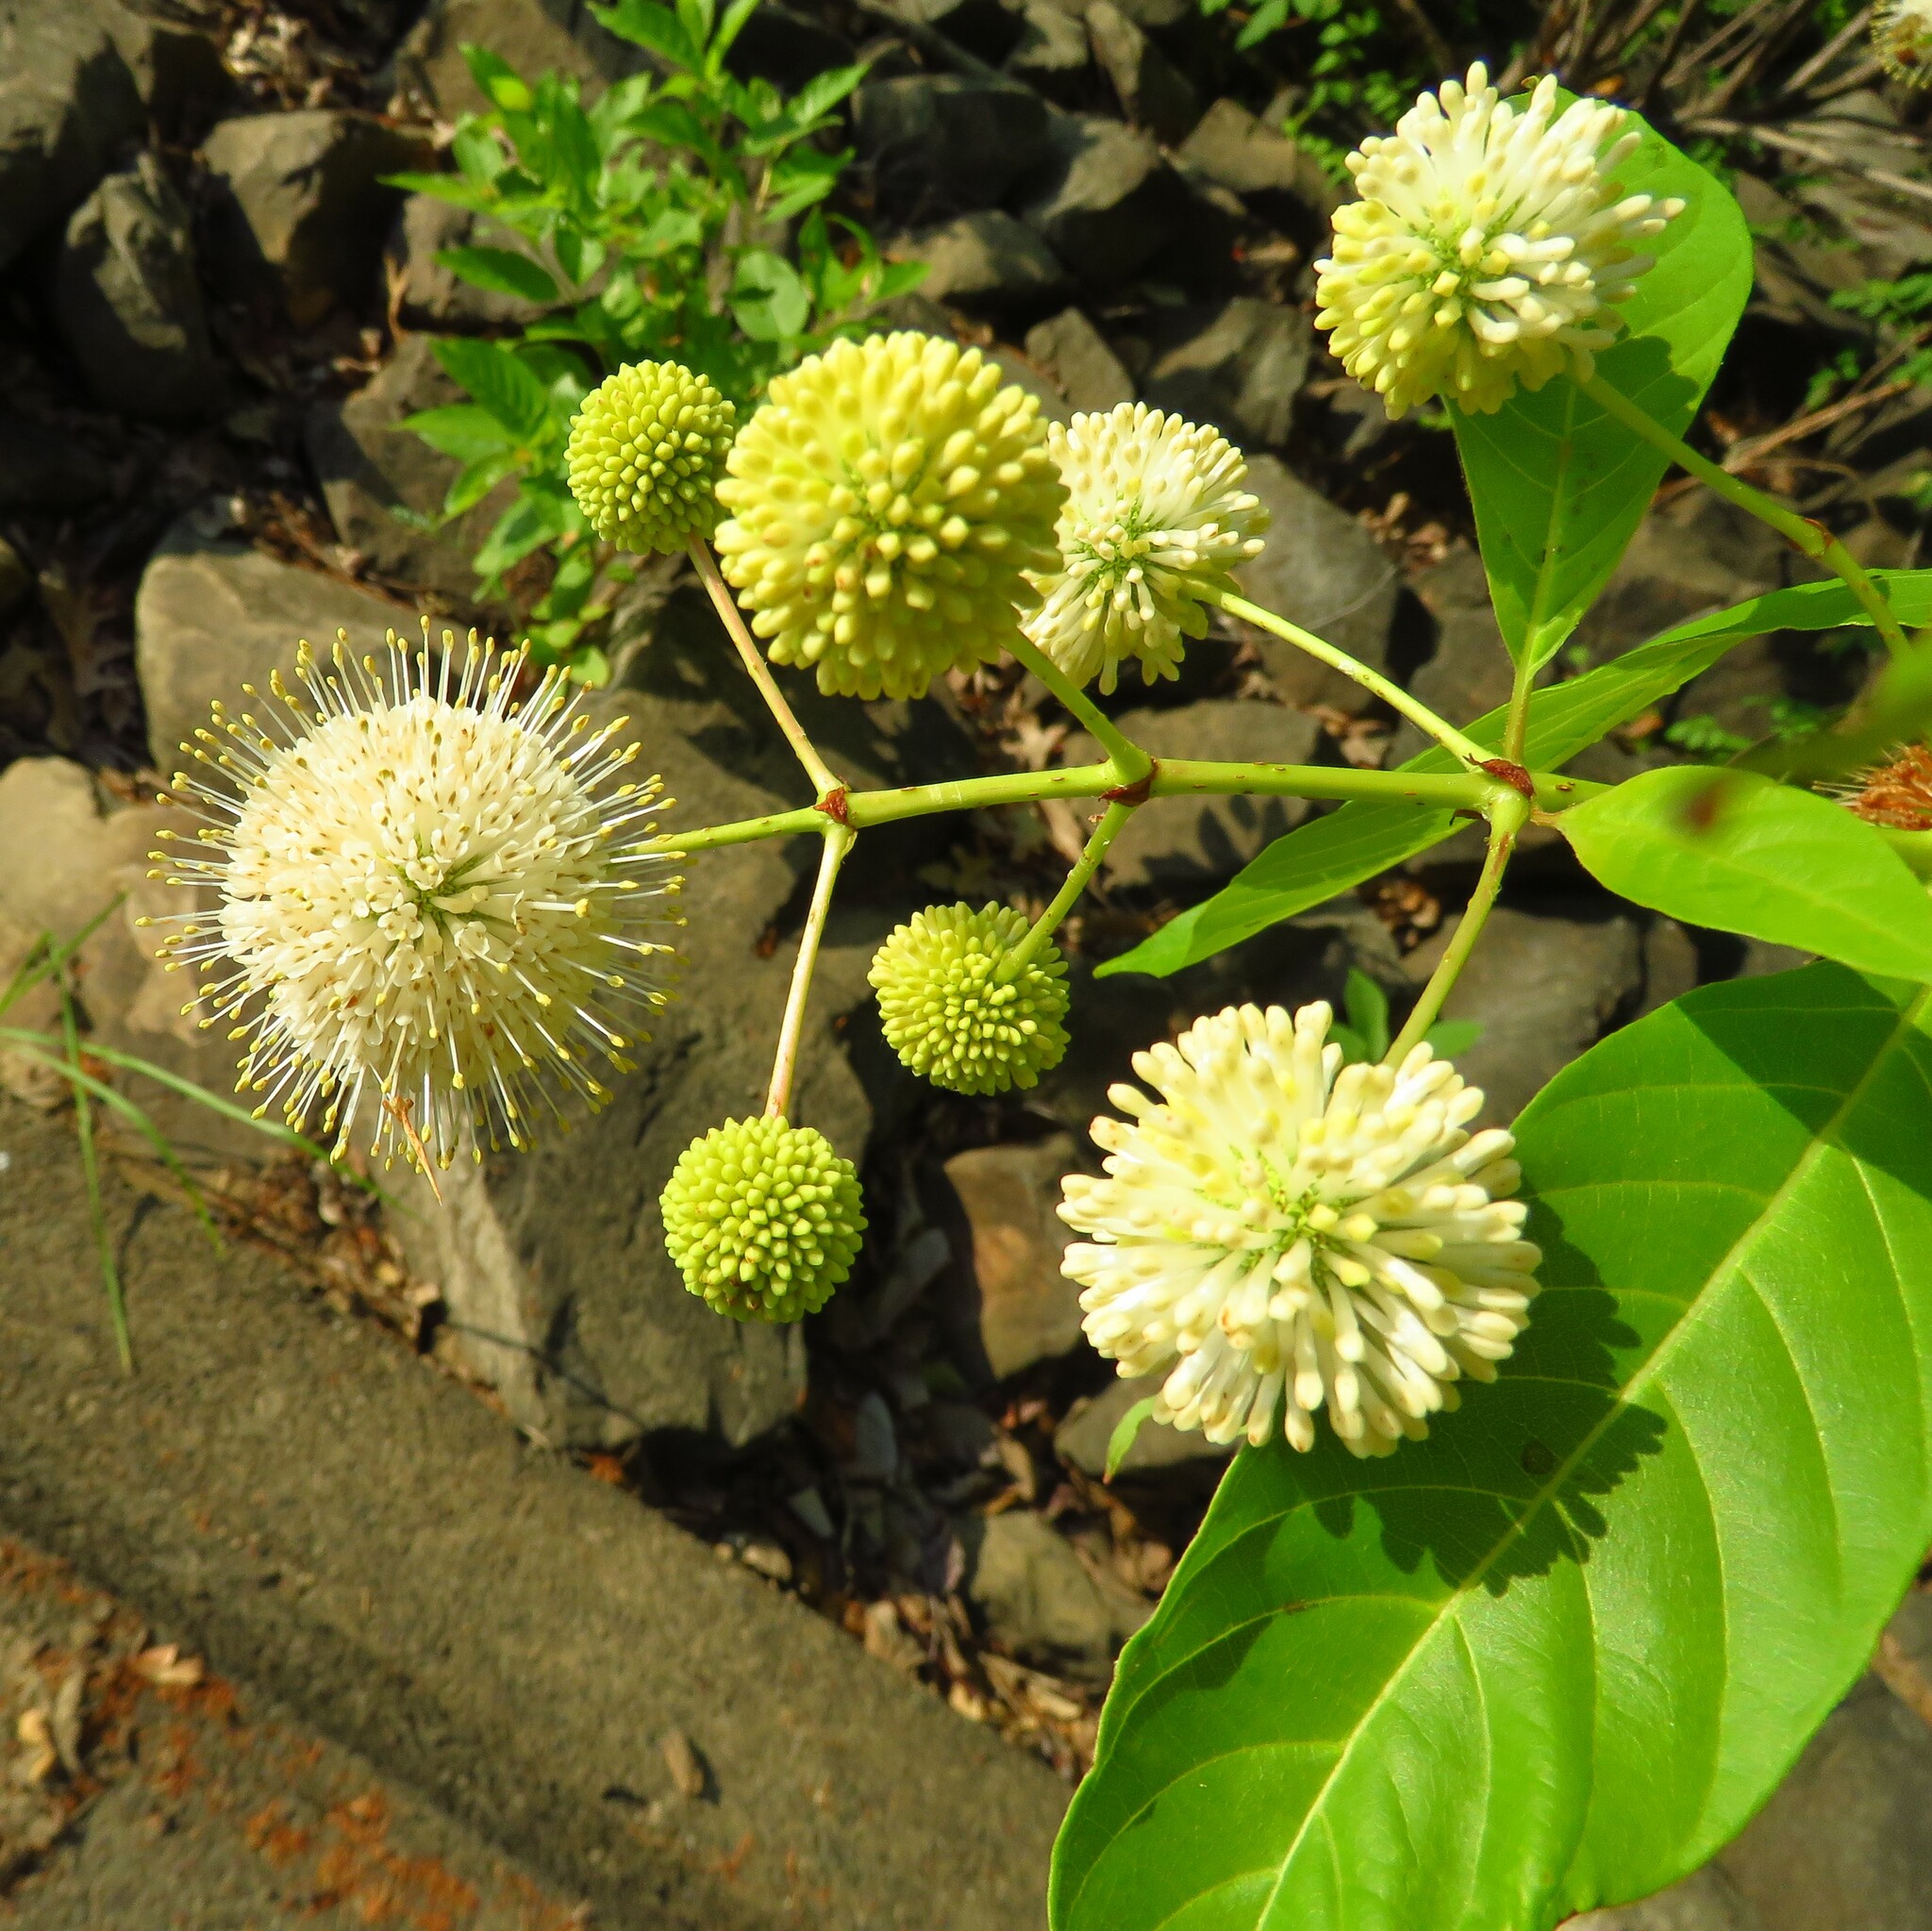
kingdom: Plantae
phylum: Tracheophyta
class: Magnoliopsida
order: Gentianales
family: Rubiaceae
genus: Cephalanthus
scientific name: Cephalanthus occidentalis
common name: Button-willow
